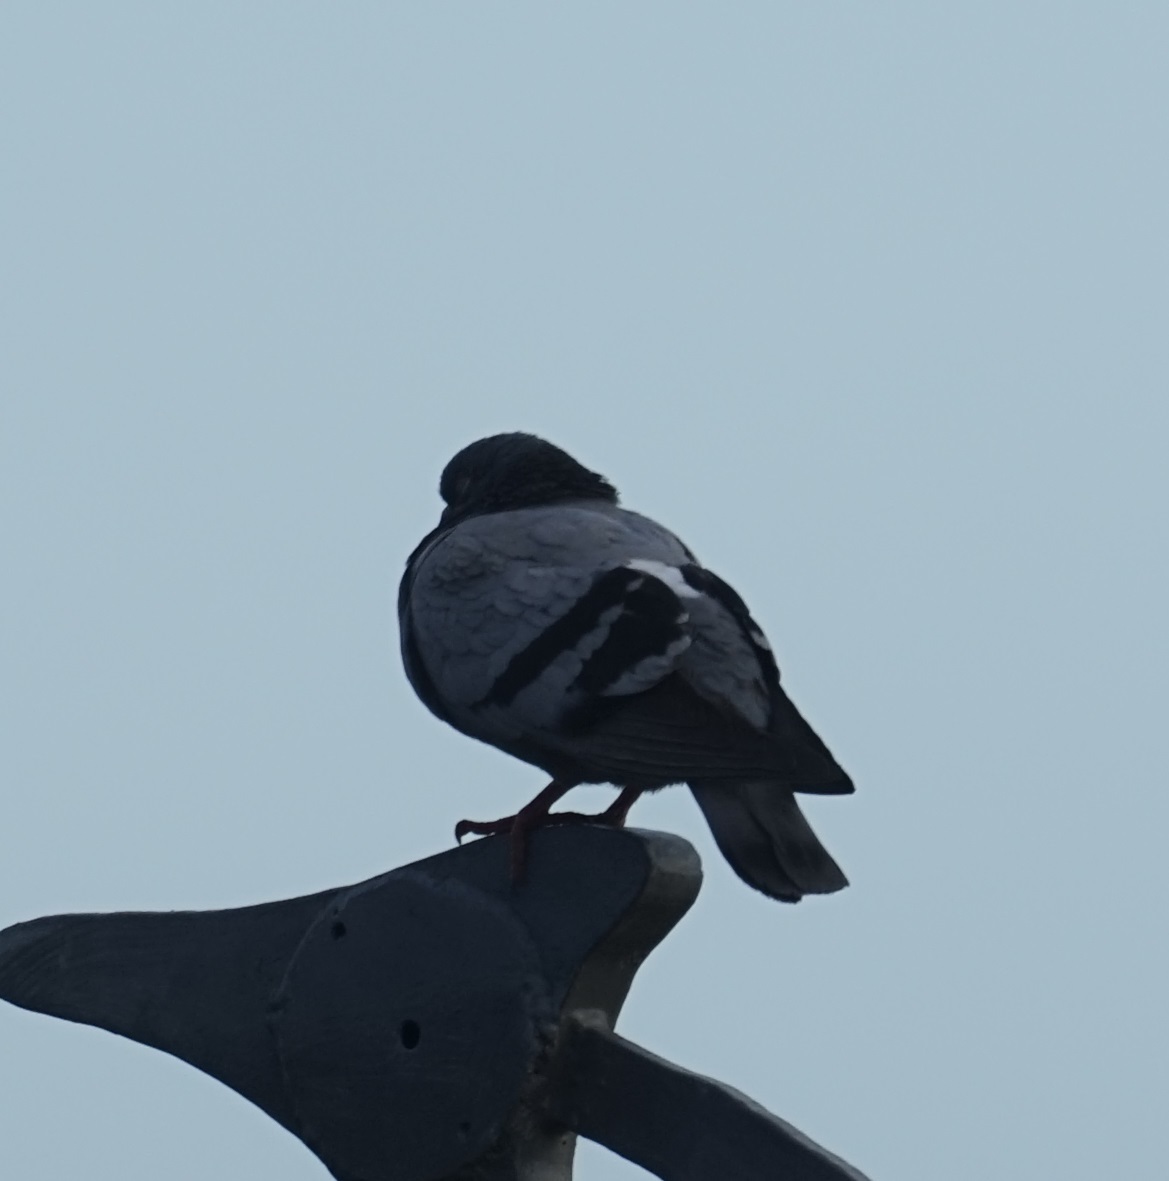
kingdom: Animalia
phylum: Chordata
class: Aves
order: Columbiformes
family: Columbidae
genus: Columba
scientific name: Columba livia
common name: Rock pigeon
